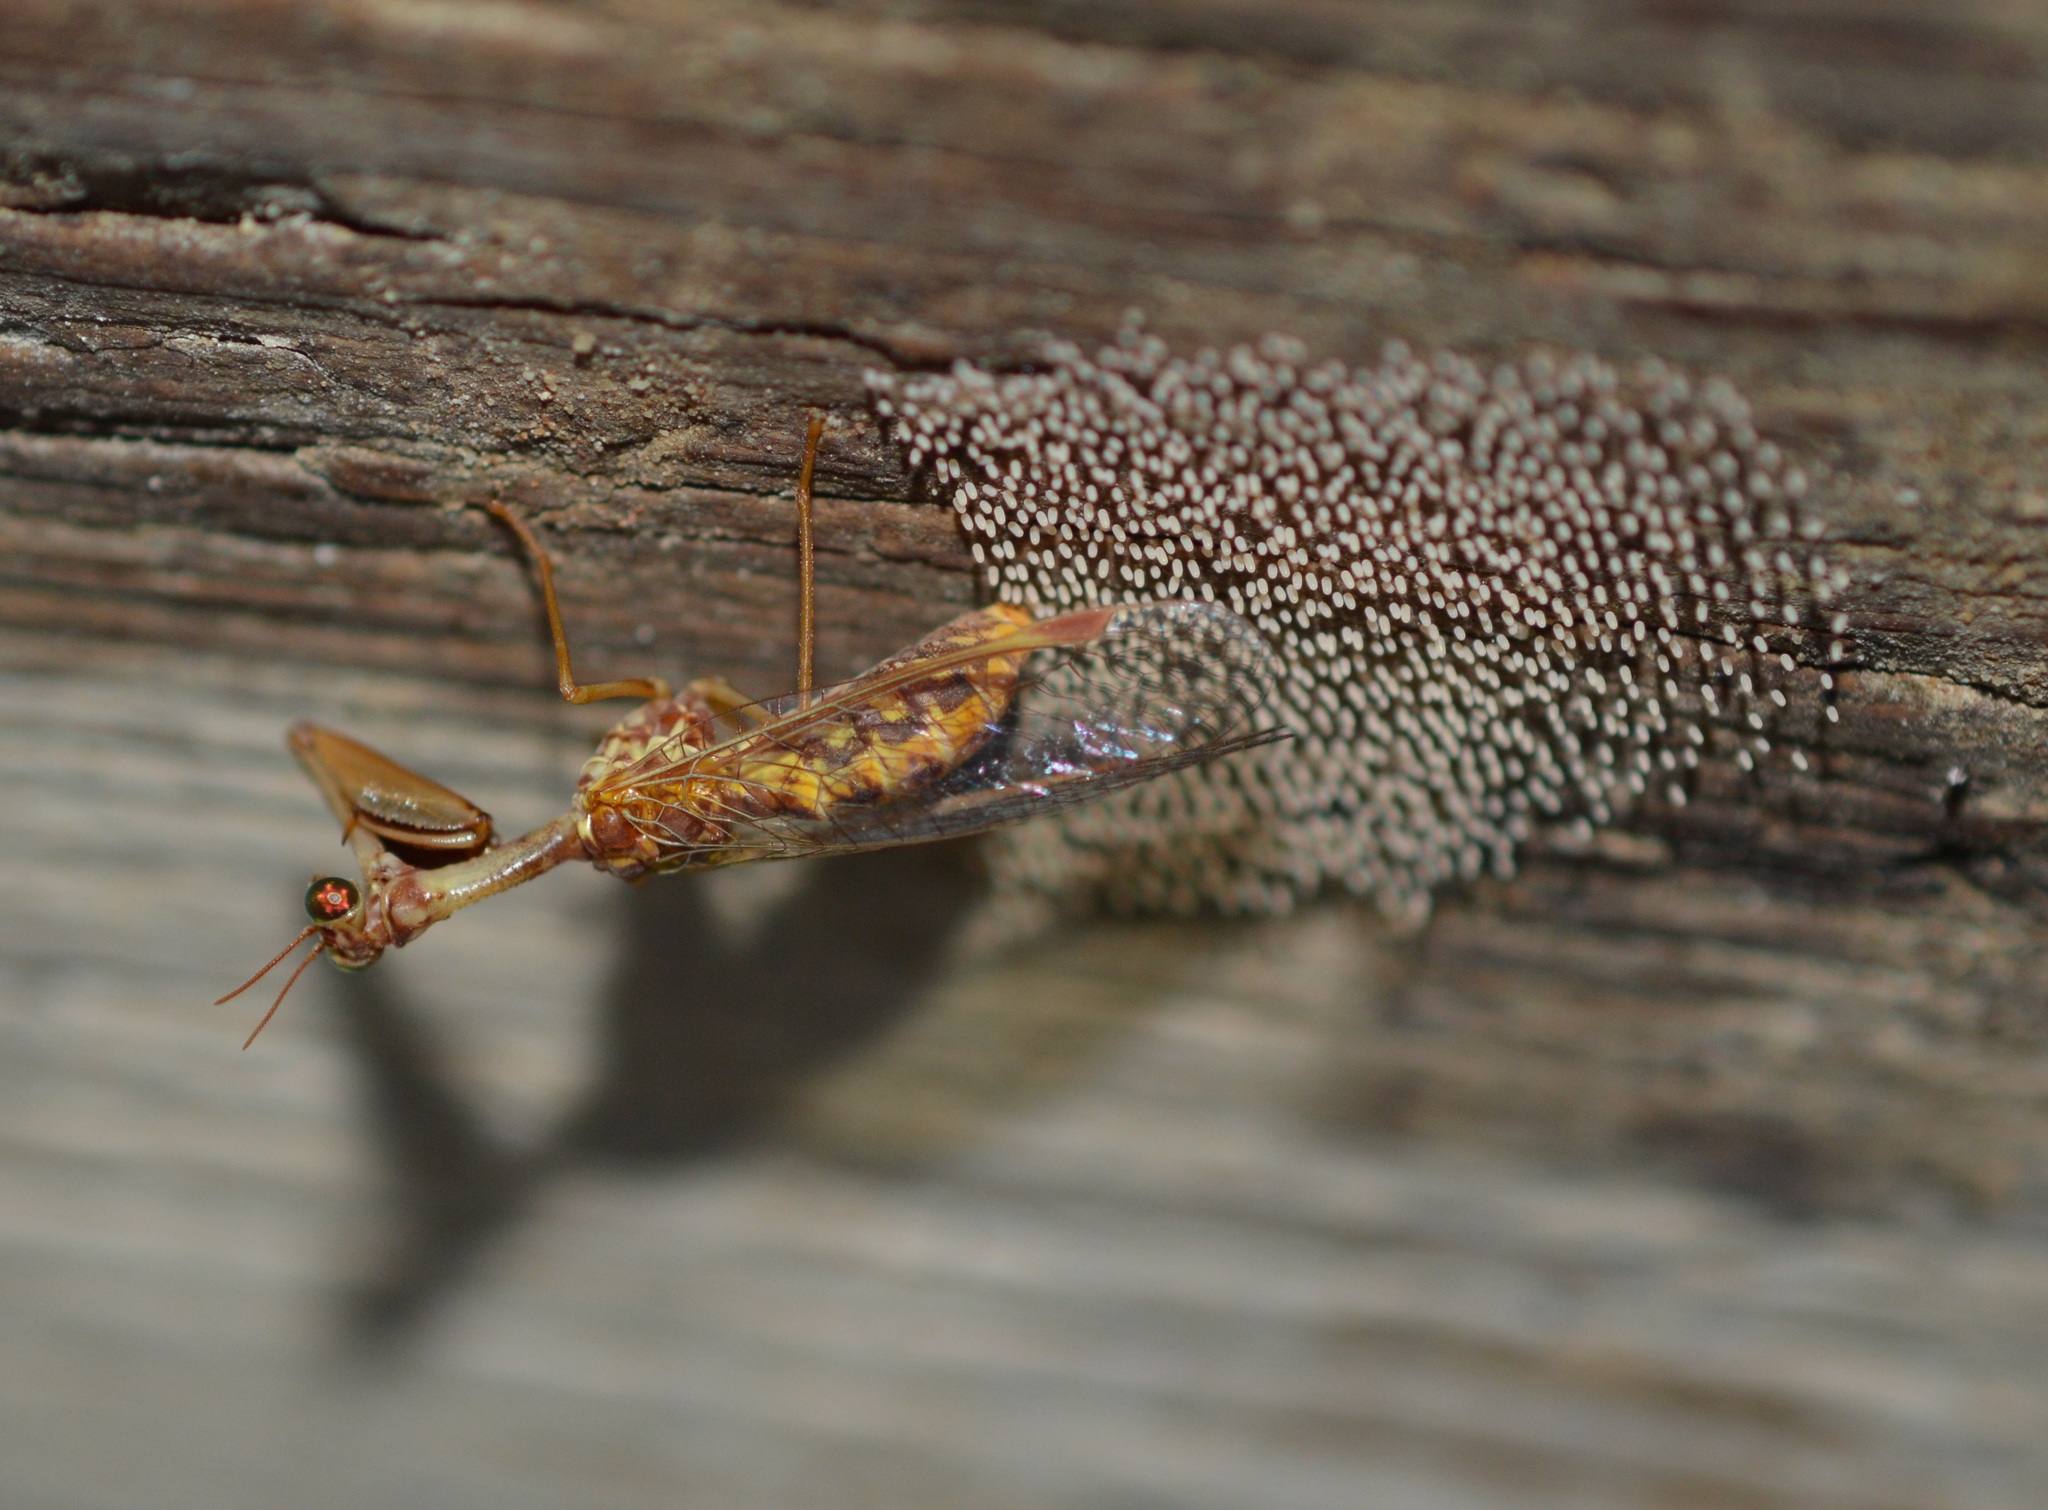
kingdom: Animalia
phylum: Arthropoda
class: Insecta
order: Neuroptera
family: Mantispidae
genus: Mantispa
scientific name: Mantispa styriaca
